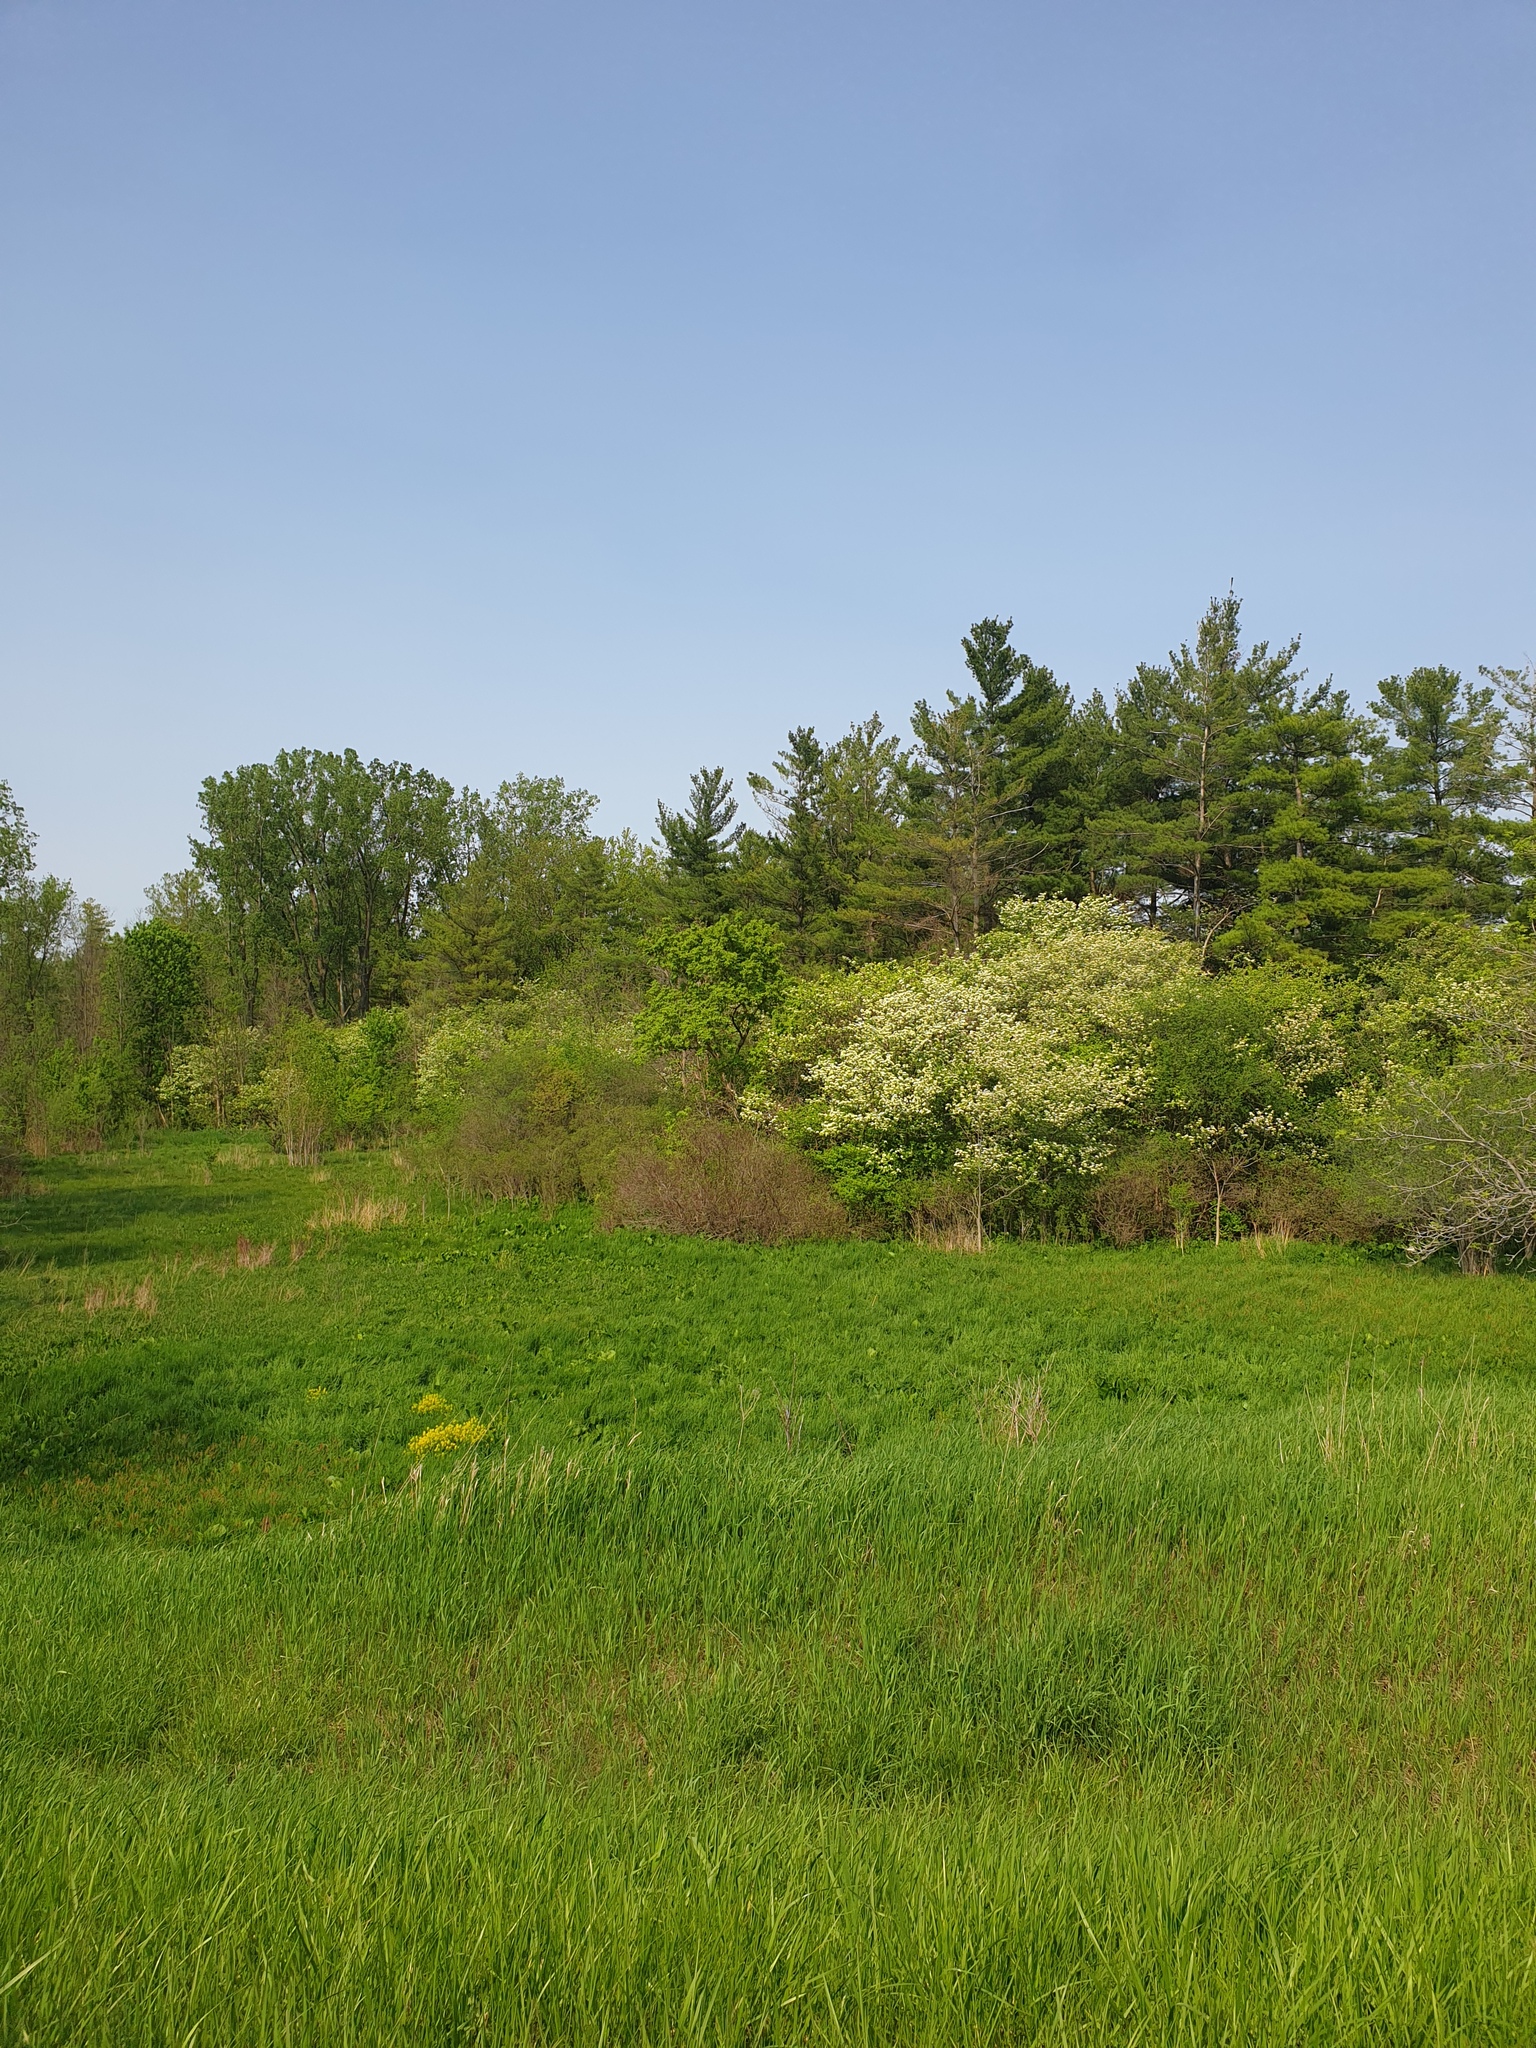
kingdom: Plantae
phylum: Tracheophyta
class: Magnoliopsida
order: Rosales
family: Rosaceae
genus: Crataegus
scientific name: Crataegus mollis
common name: Downy hawthorn
